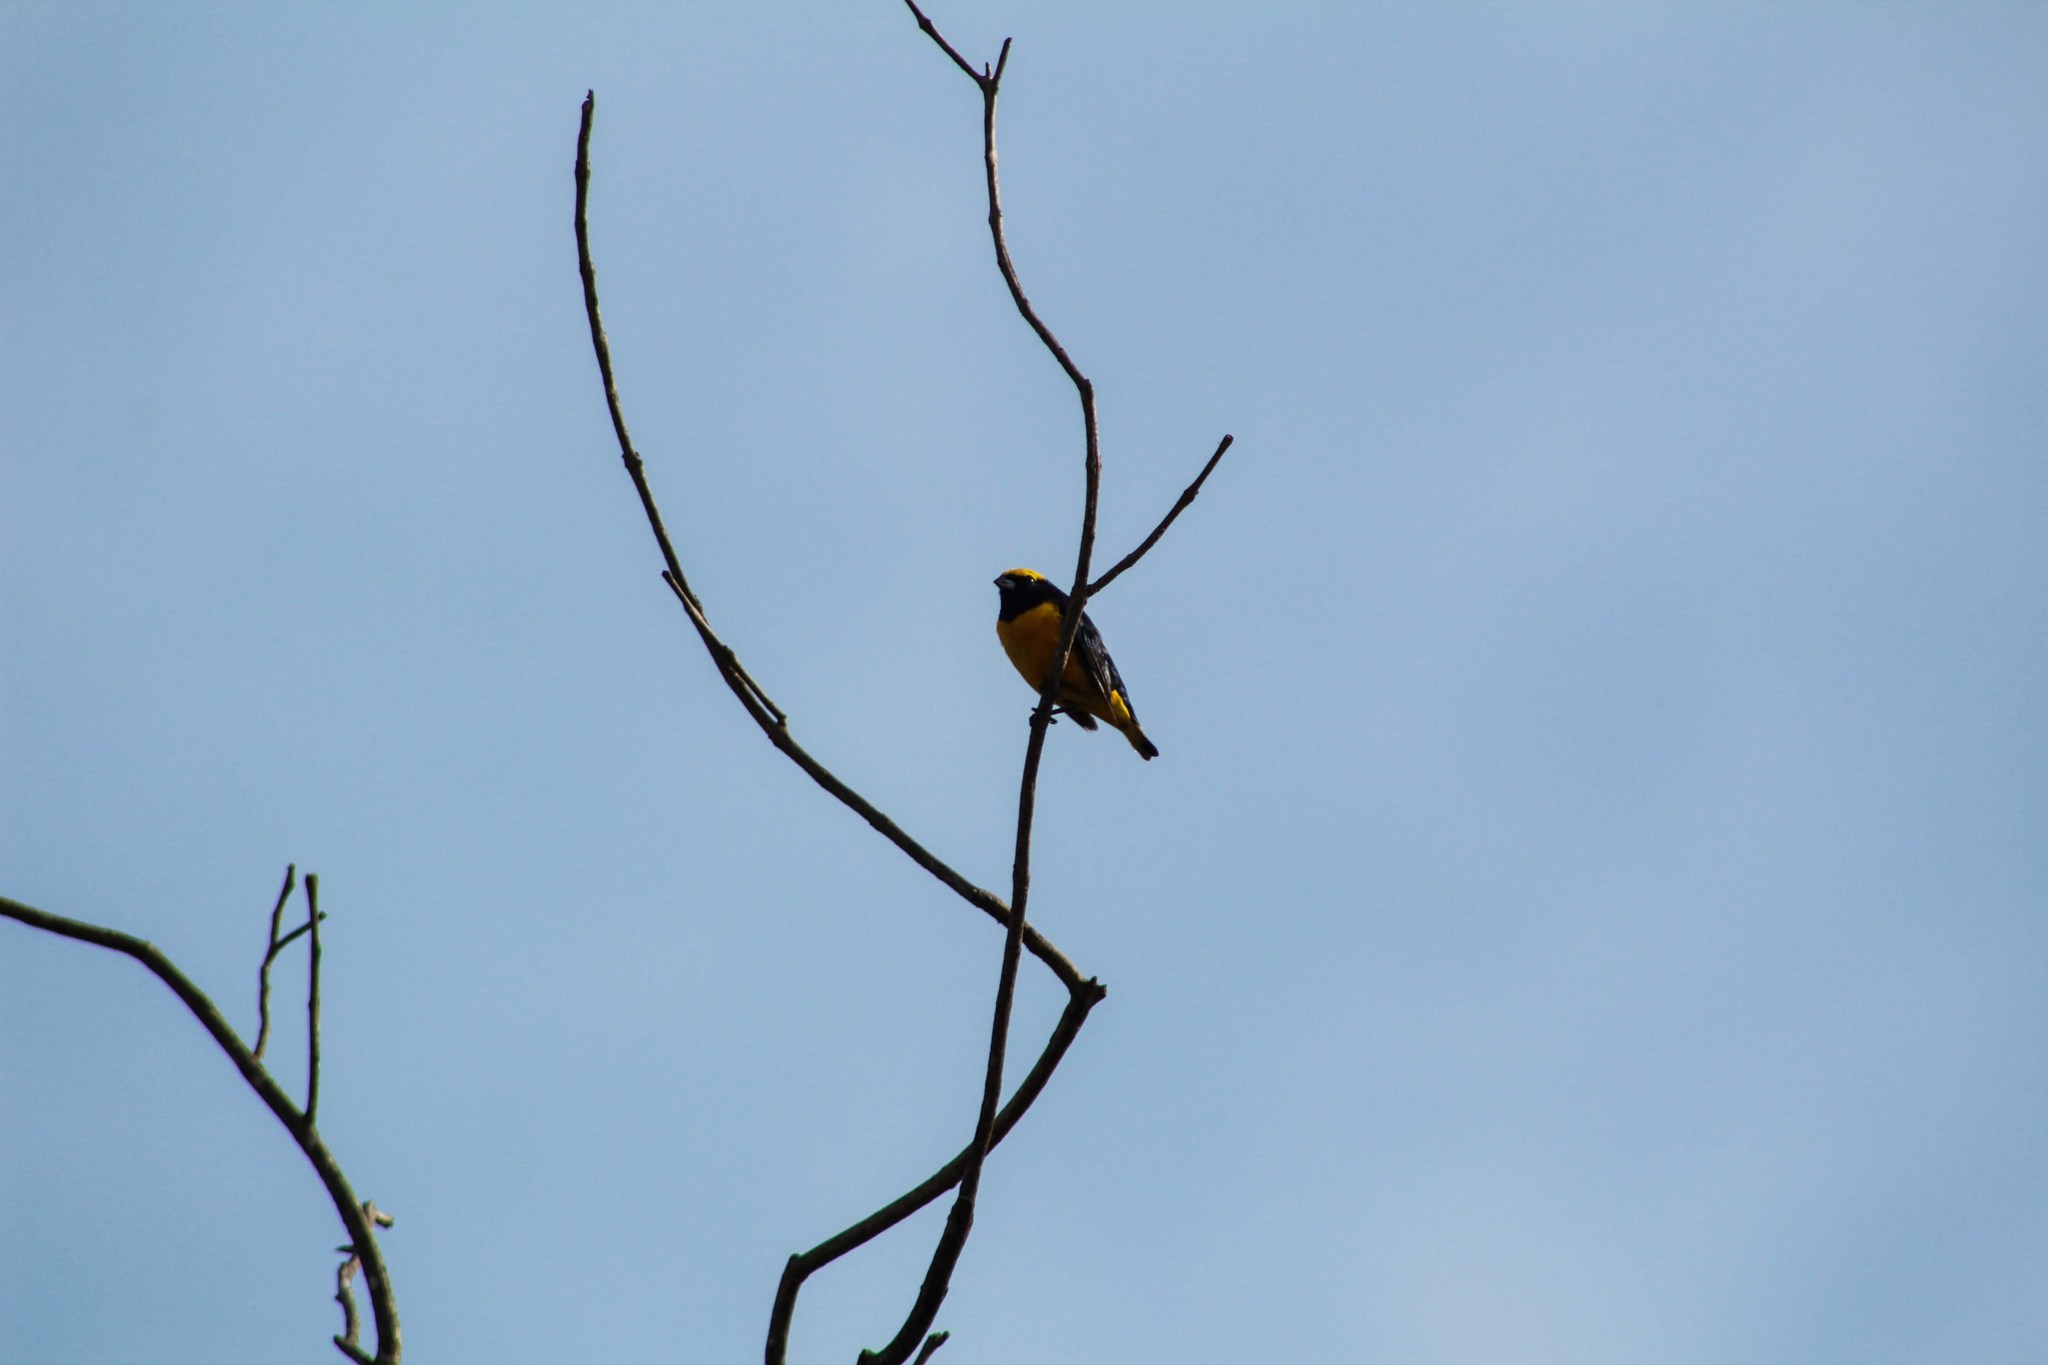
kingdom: Animalia
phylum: Chordata
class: Aves
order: Passeriformes
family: Fringillidae
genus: Euphonia
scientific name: Euphonia luteicapilla
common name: Yellow-crowned euphonia
